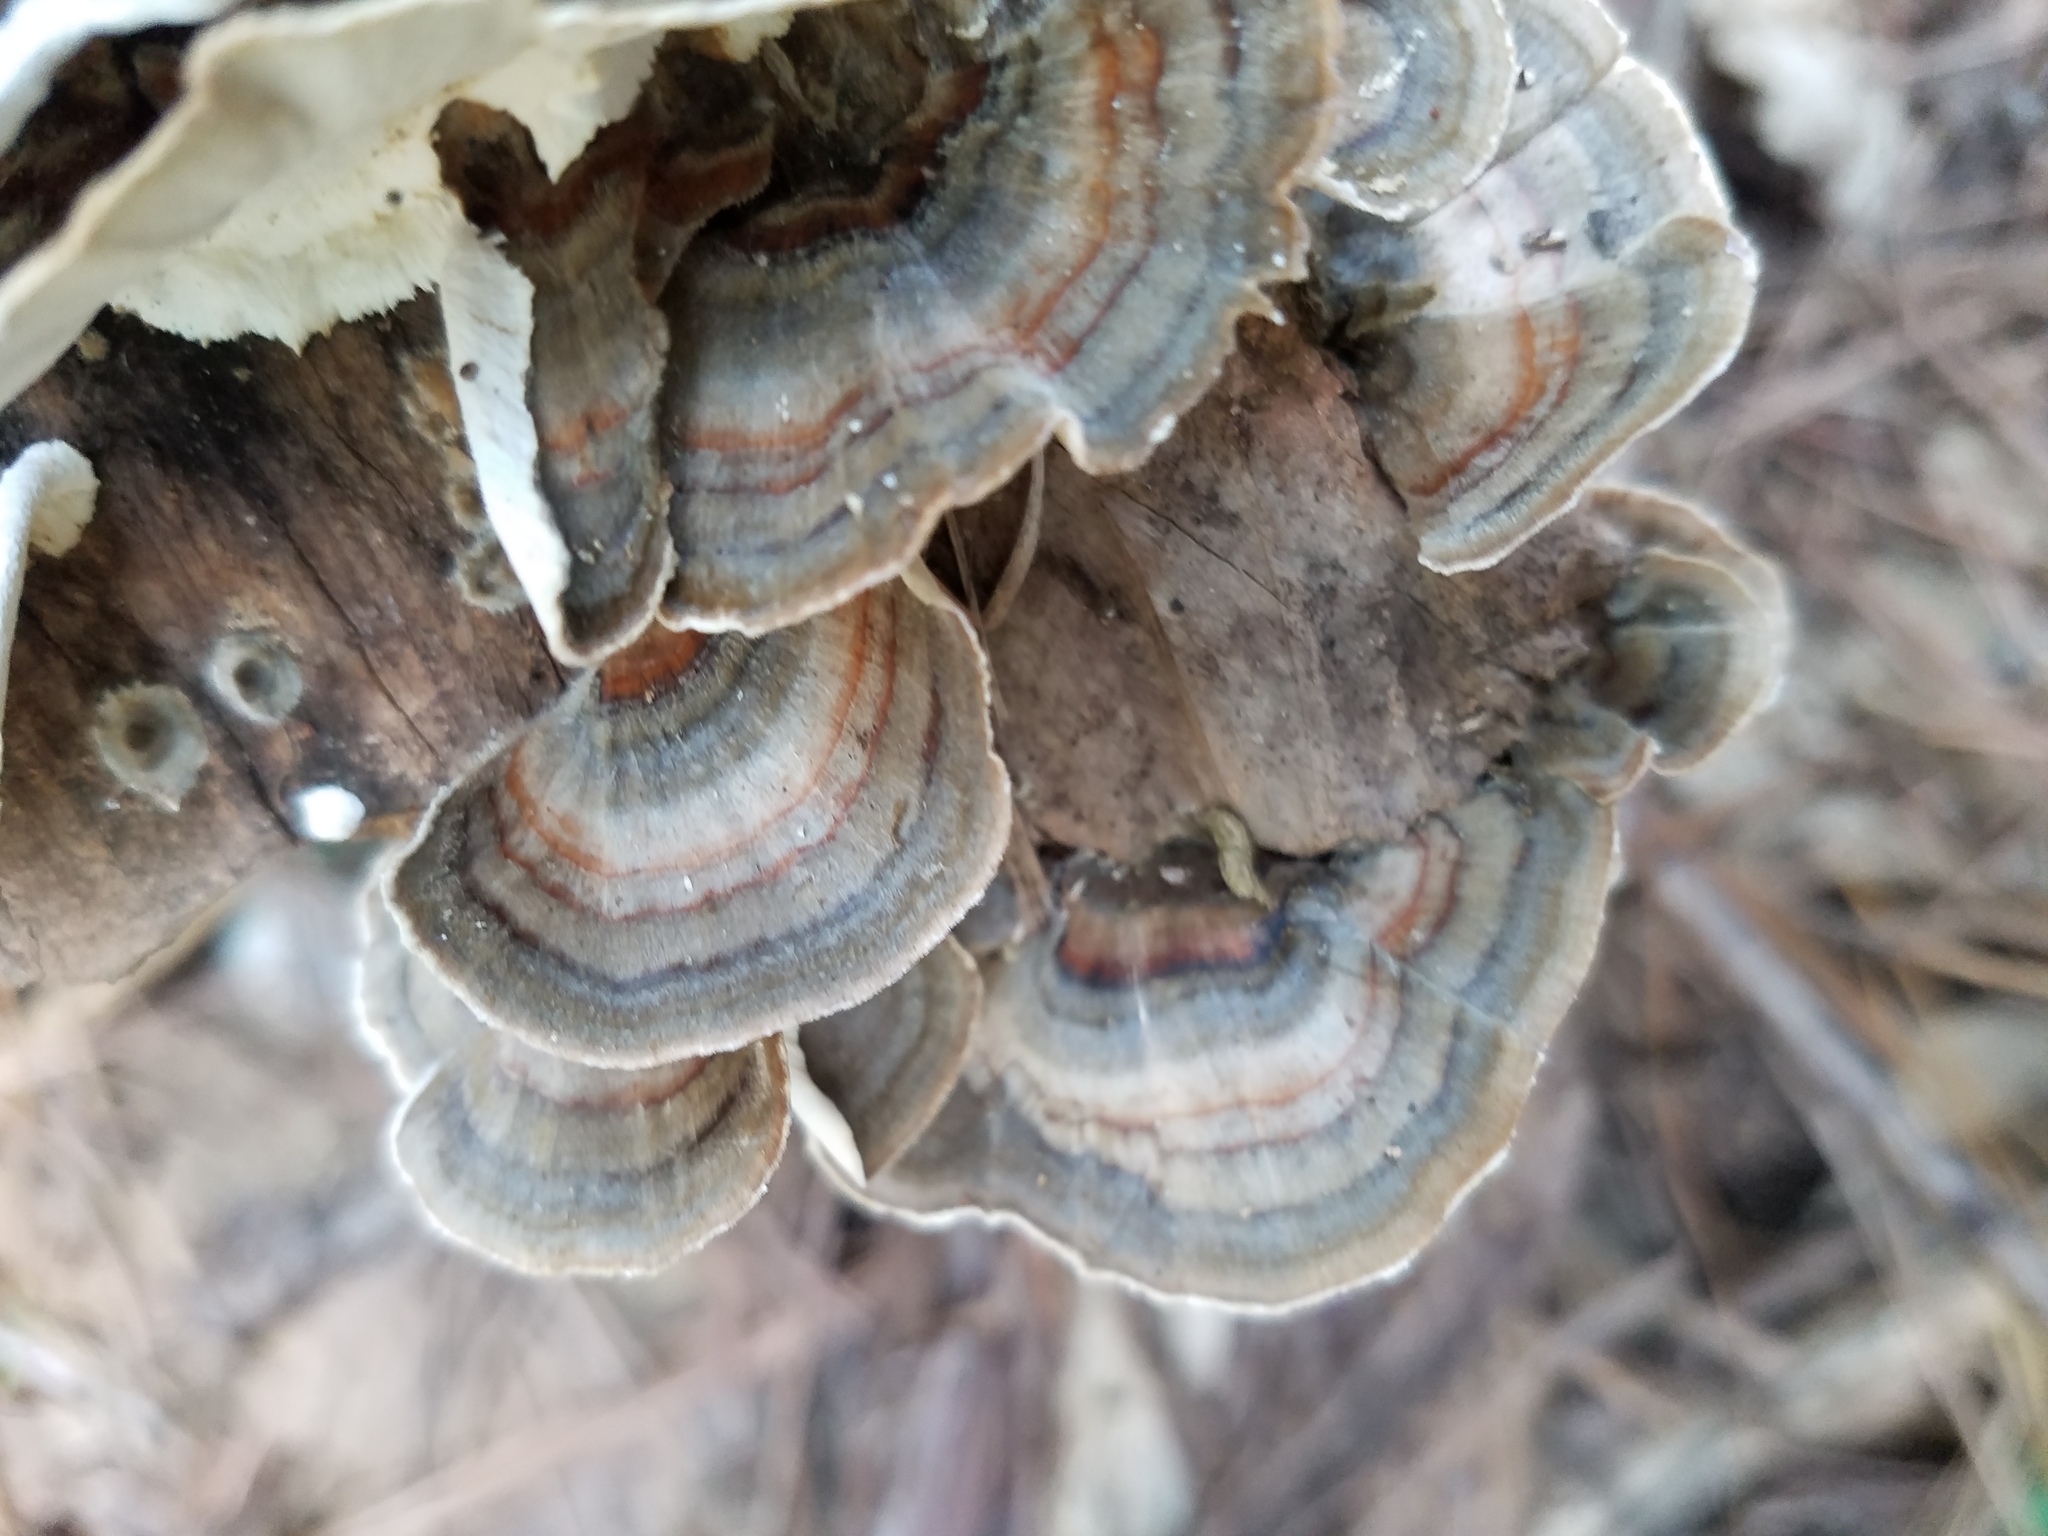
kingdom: Fungi
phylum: Basidiomycota
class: Agaricomycetes
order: Polyporales
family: Polyporaceae
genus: Trametes
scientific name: Trametes versicolor
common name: Turkeytail
